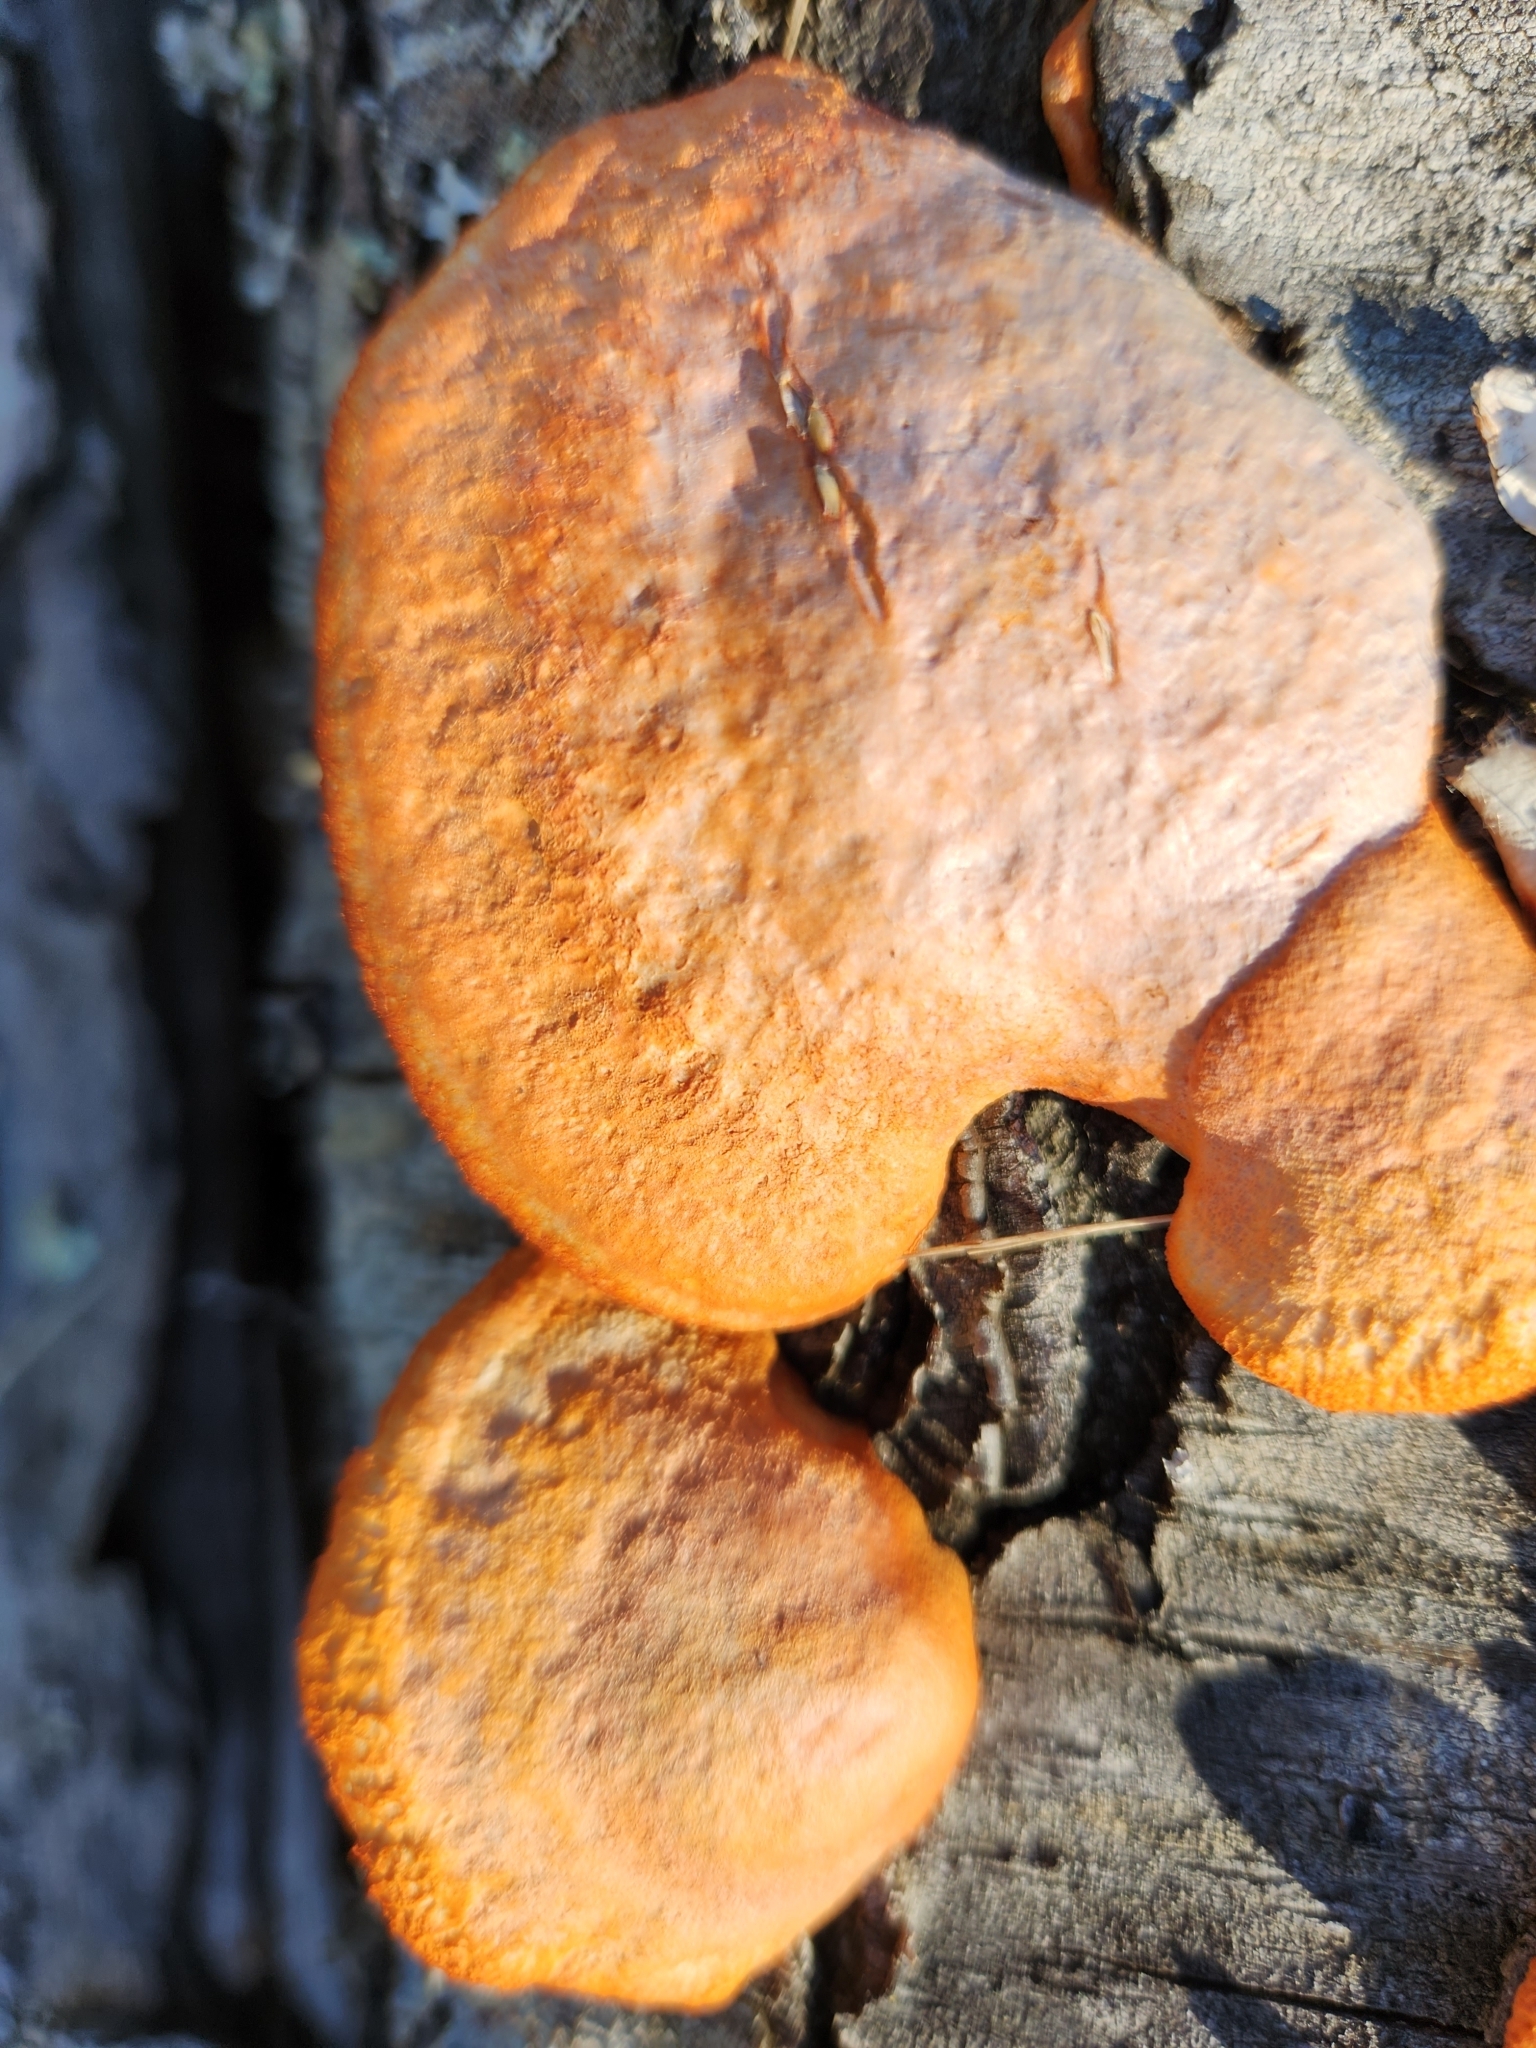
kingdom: Fungi
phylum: Basidiomycota
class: Agaricomycetes
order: Polyporales
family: Polyporaceae
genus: Trametes
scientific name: Trametes cinnabarina
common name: Northern cinnabar polypore
